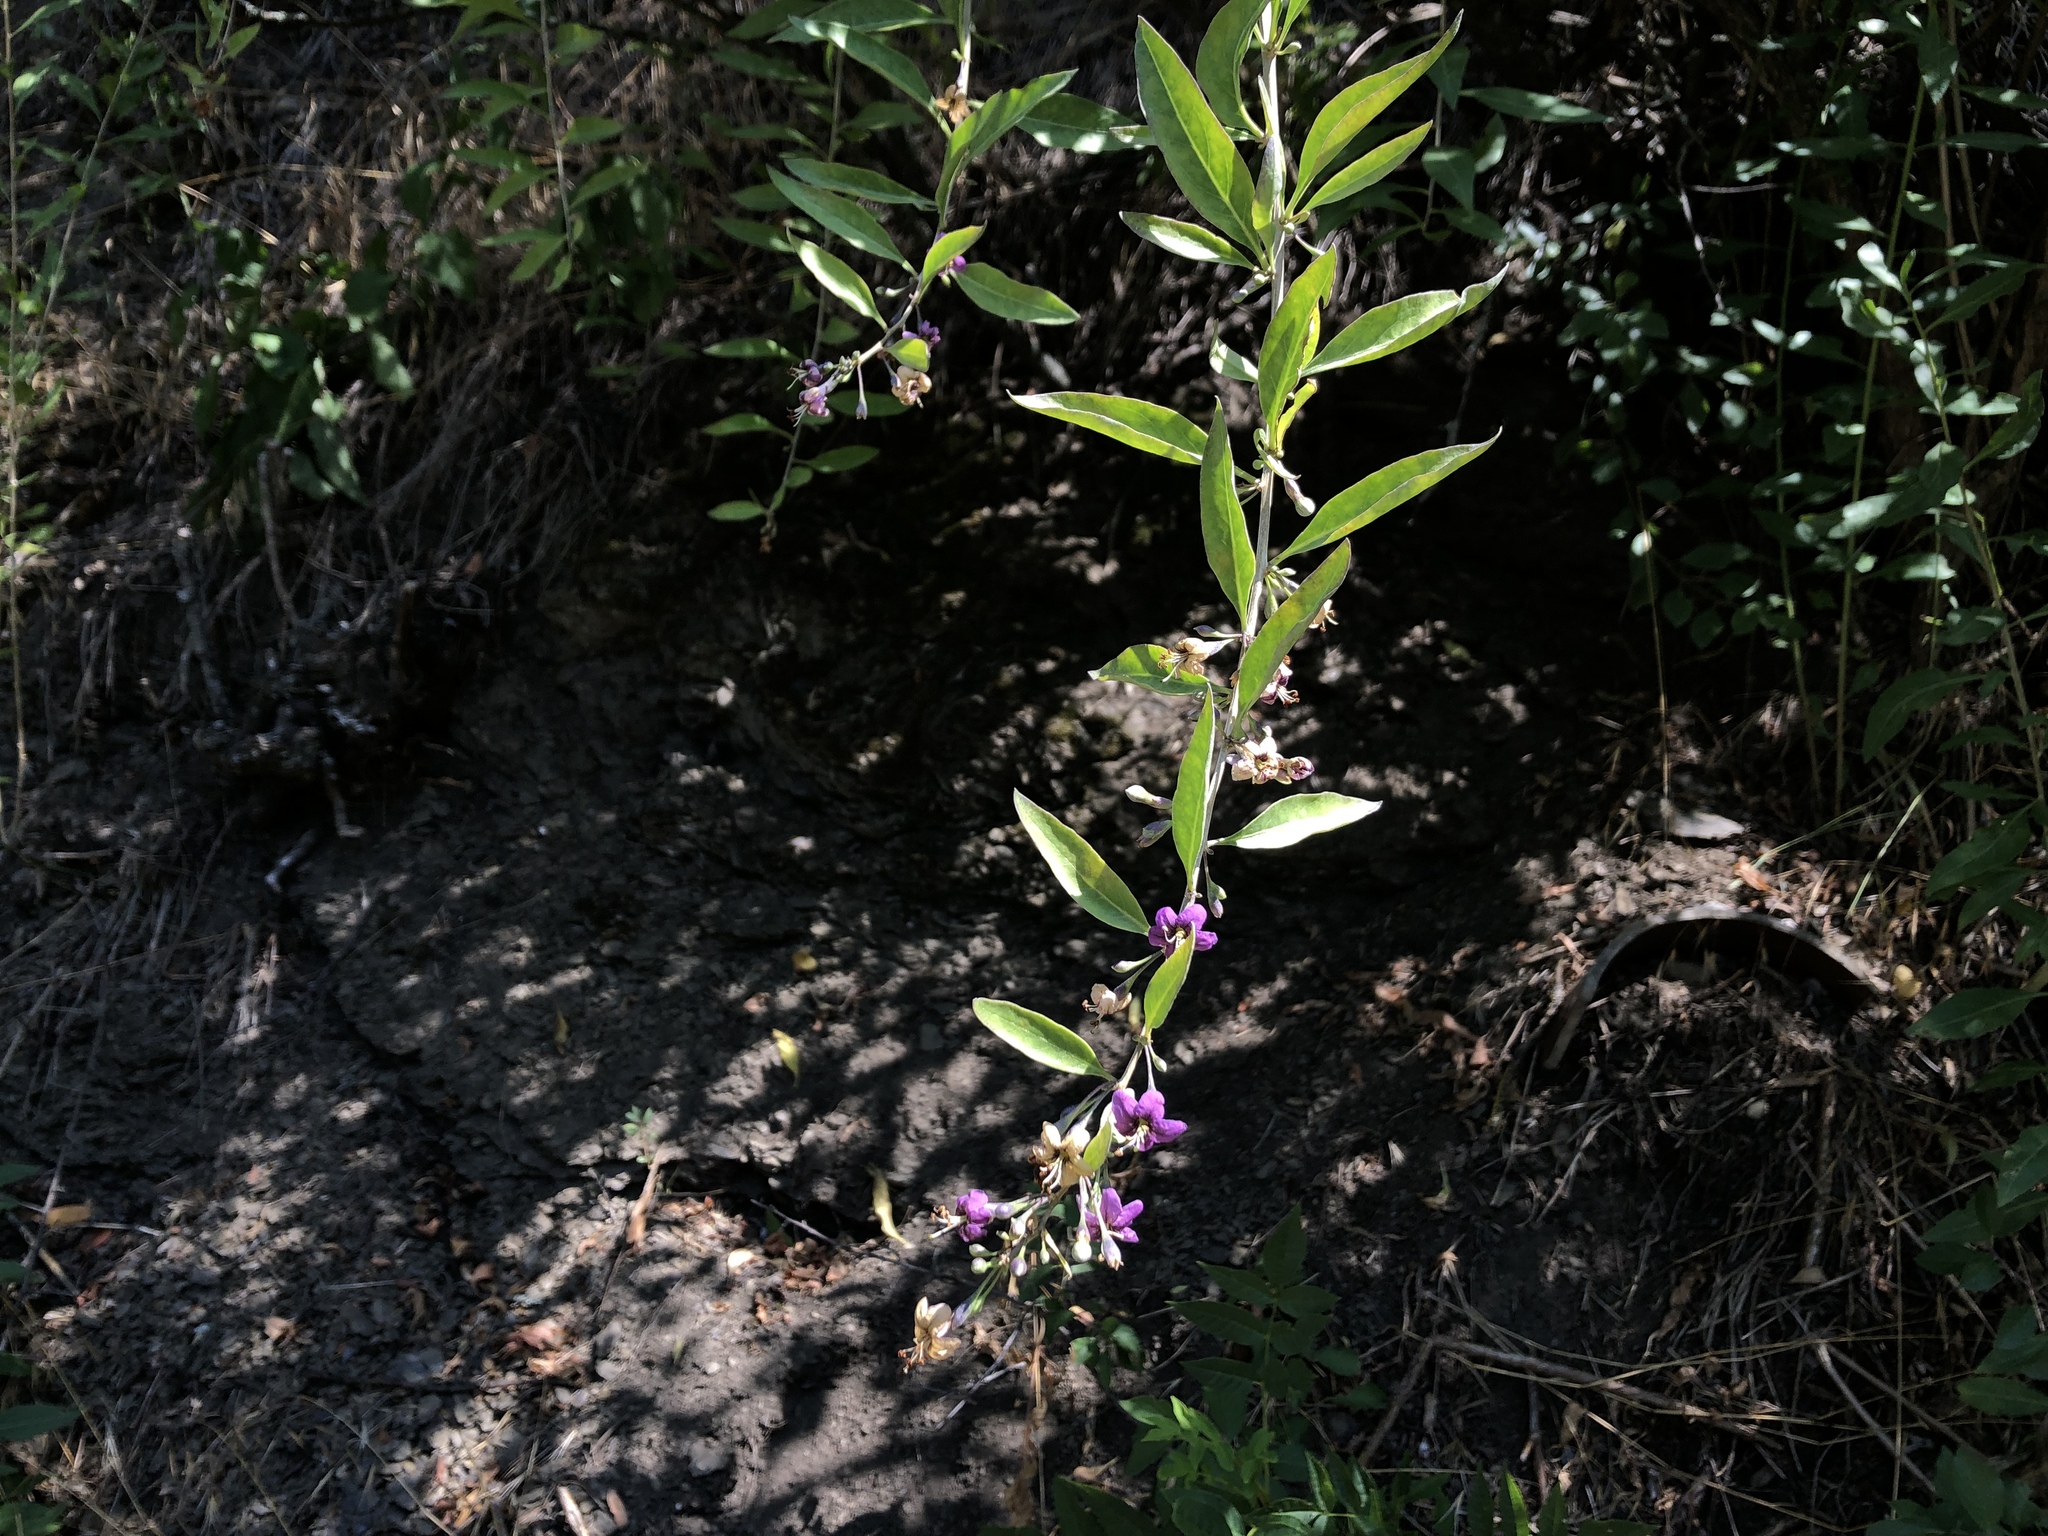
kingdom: Plantae
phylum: Tracheophyta
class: Magnoliopsida
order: Solanales
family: Solanaceae
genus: Lycium
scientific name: Lycium barbarum
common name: Duke of argyll's teaplant
